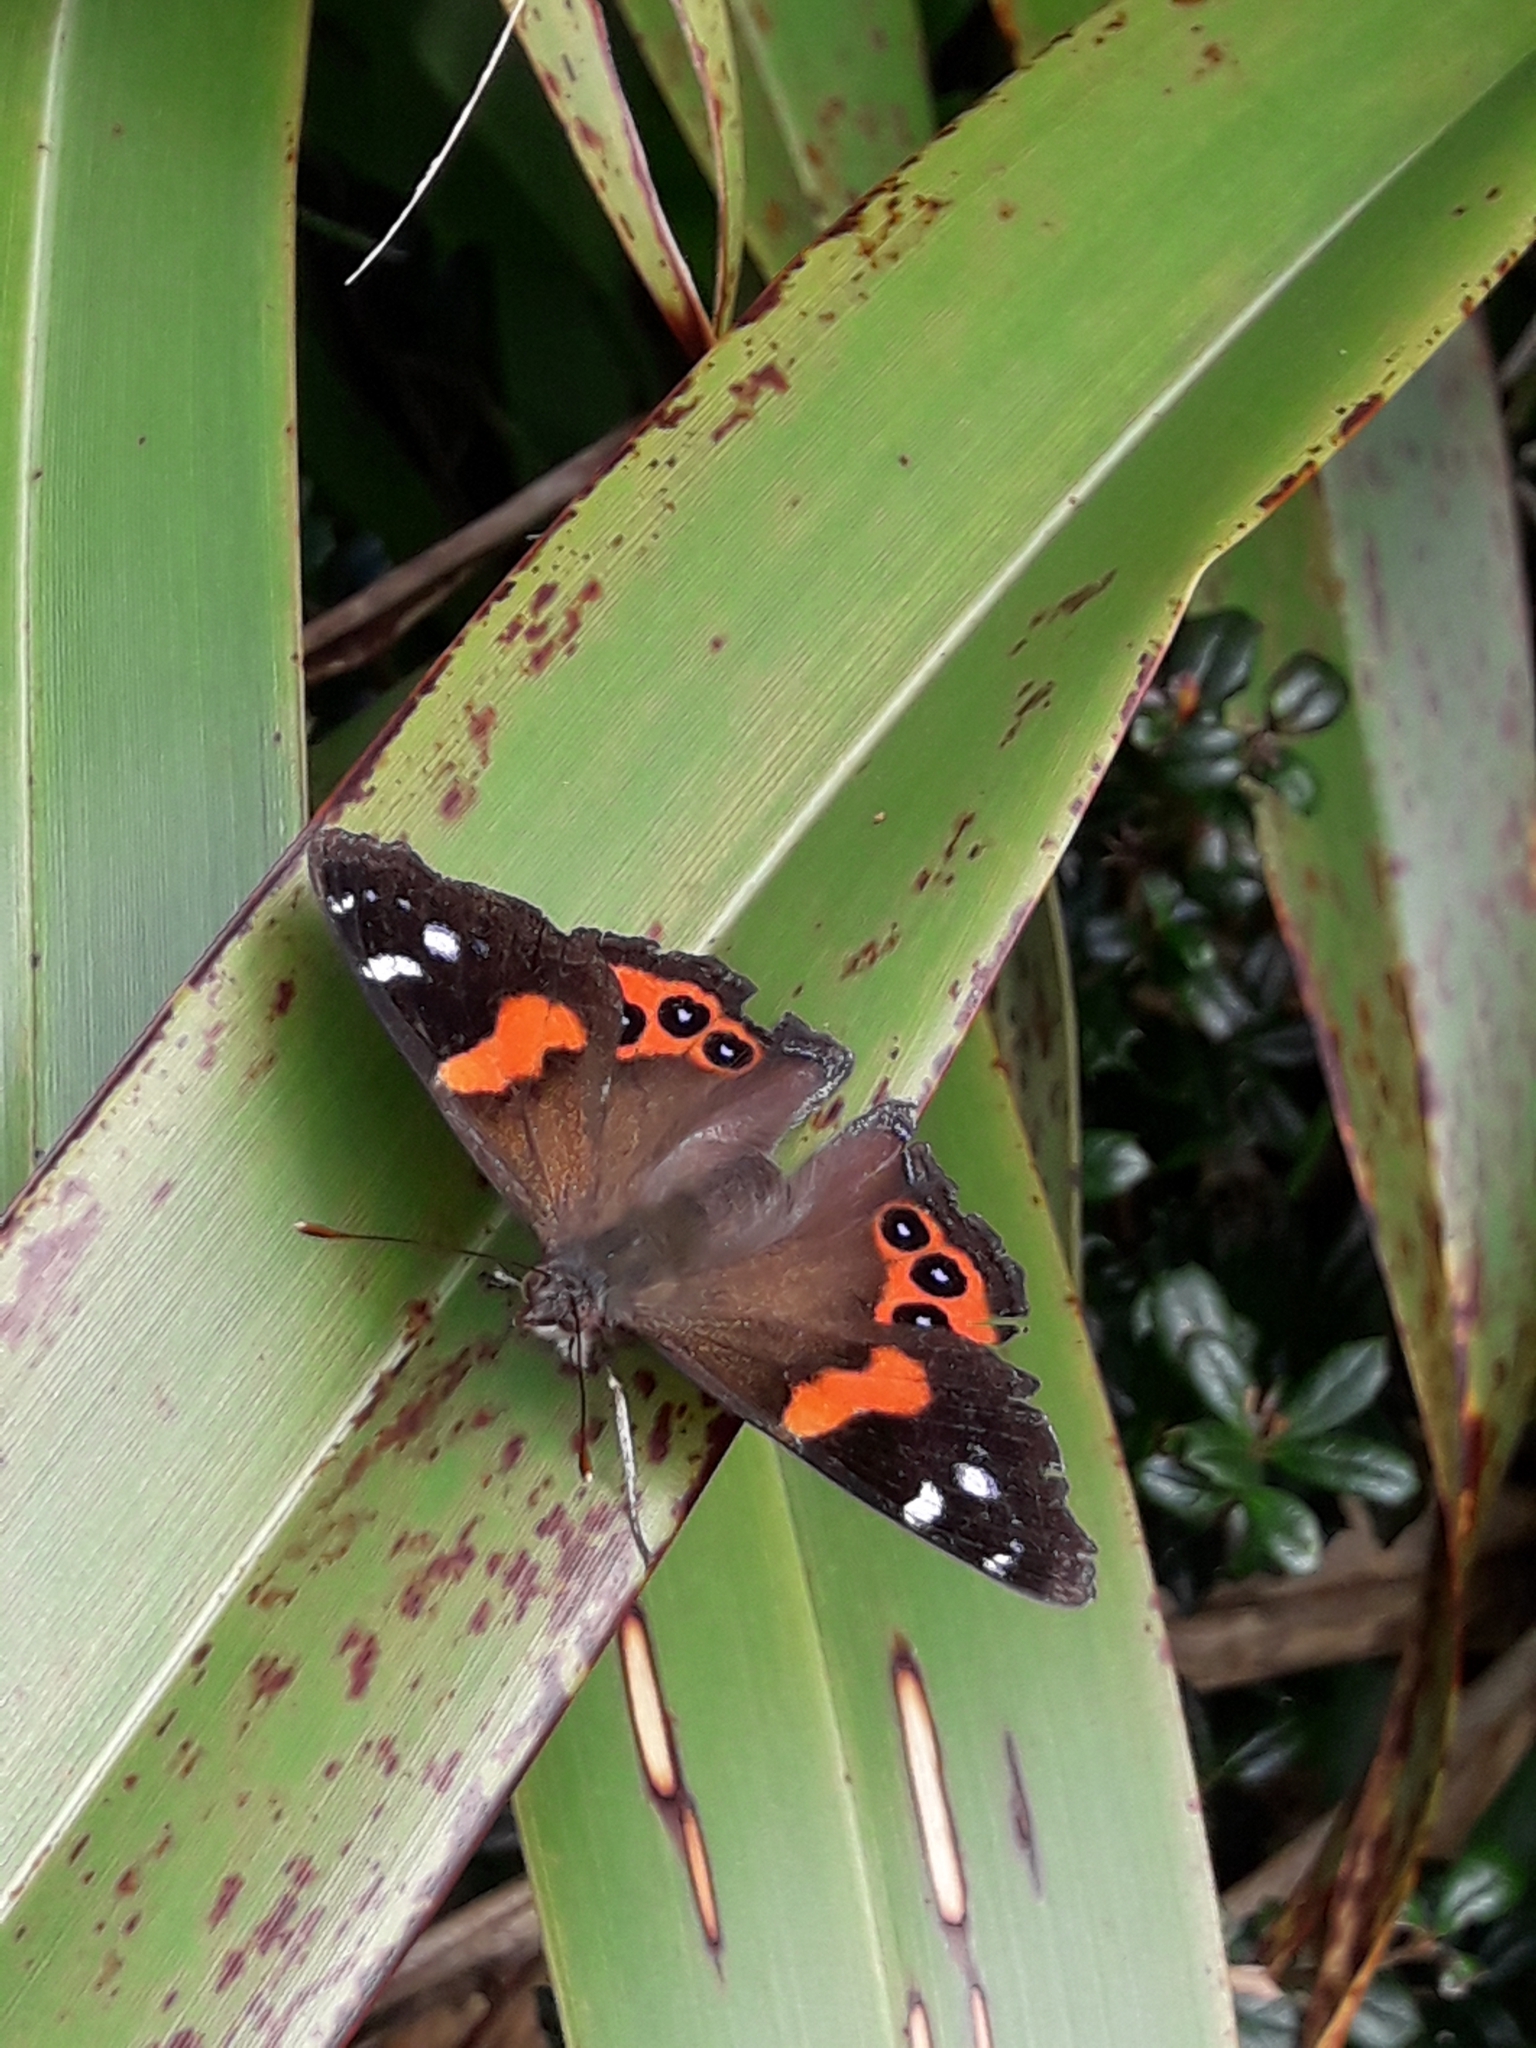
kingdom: Animalia
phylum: Arthropoda
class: Insecta
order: Lepidoptera
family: Nymphalidae
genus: Vanessa
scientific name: Vanessa gonerilla
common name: New zealand red admiral
